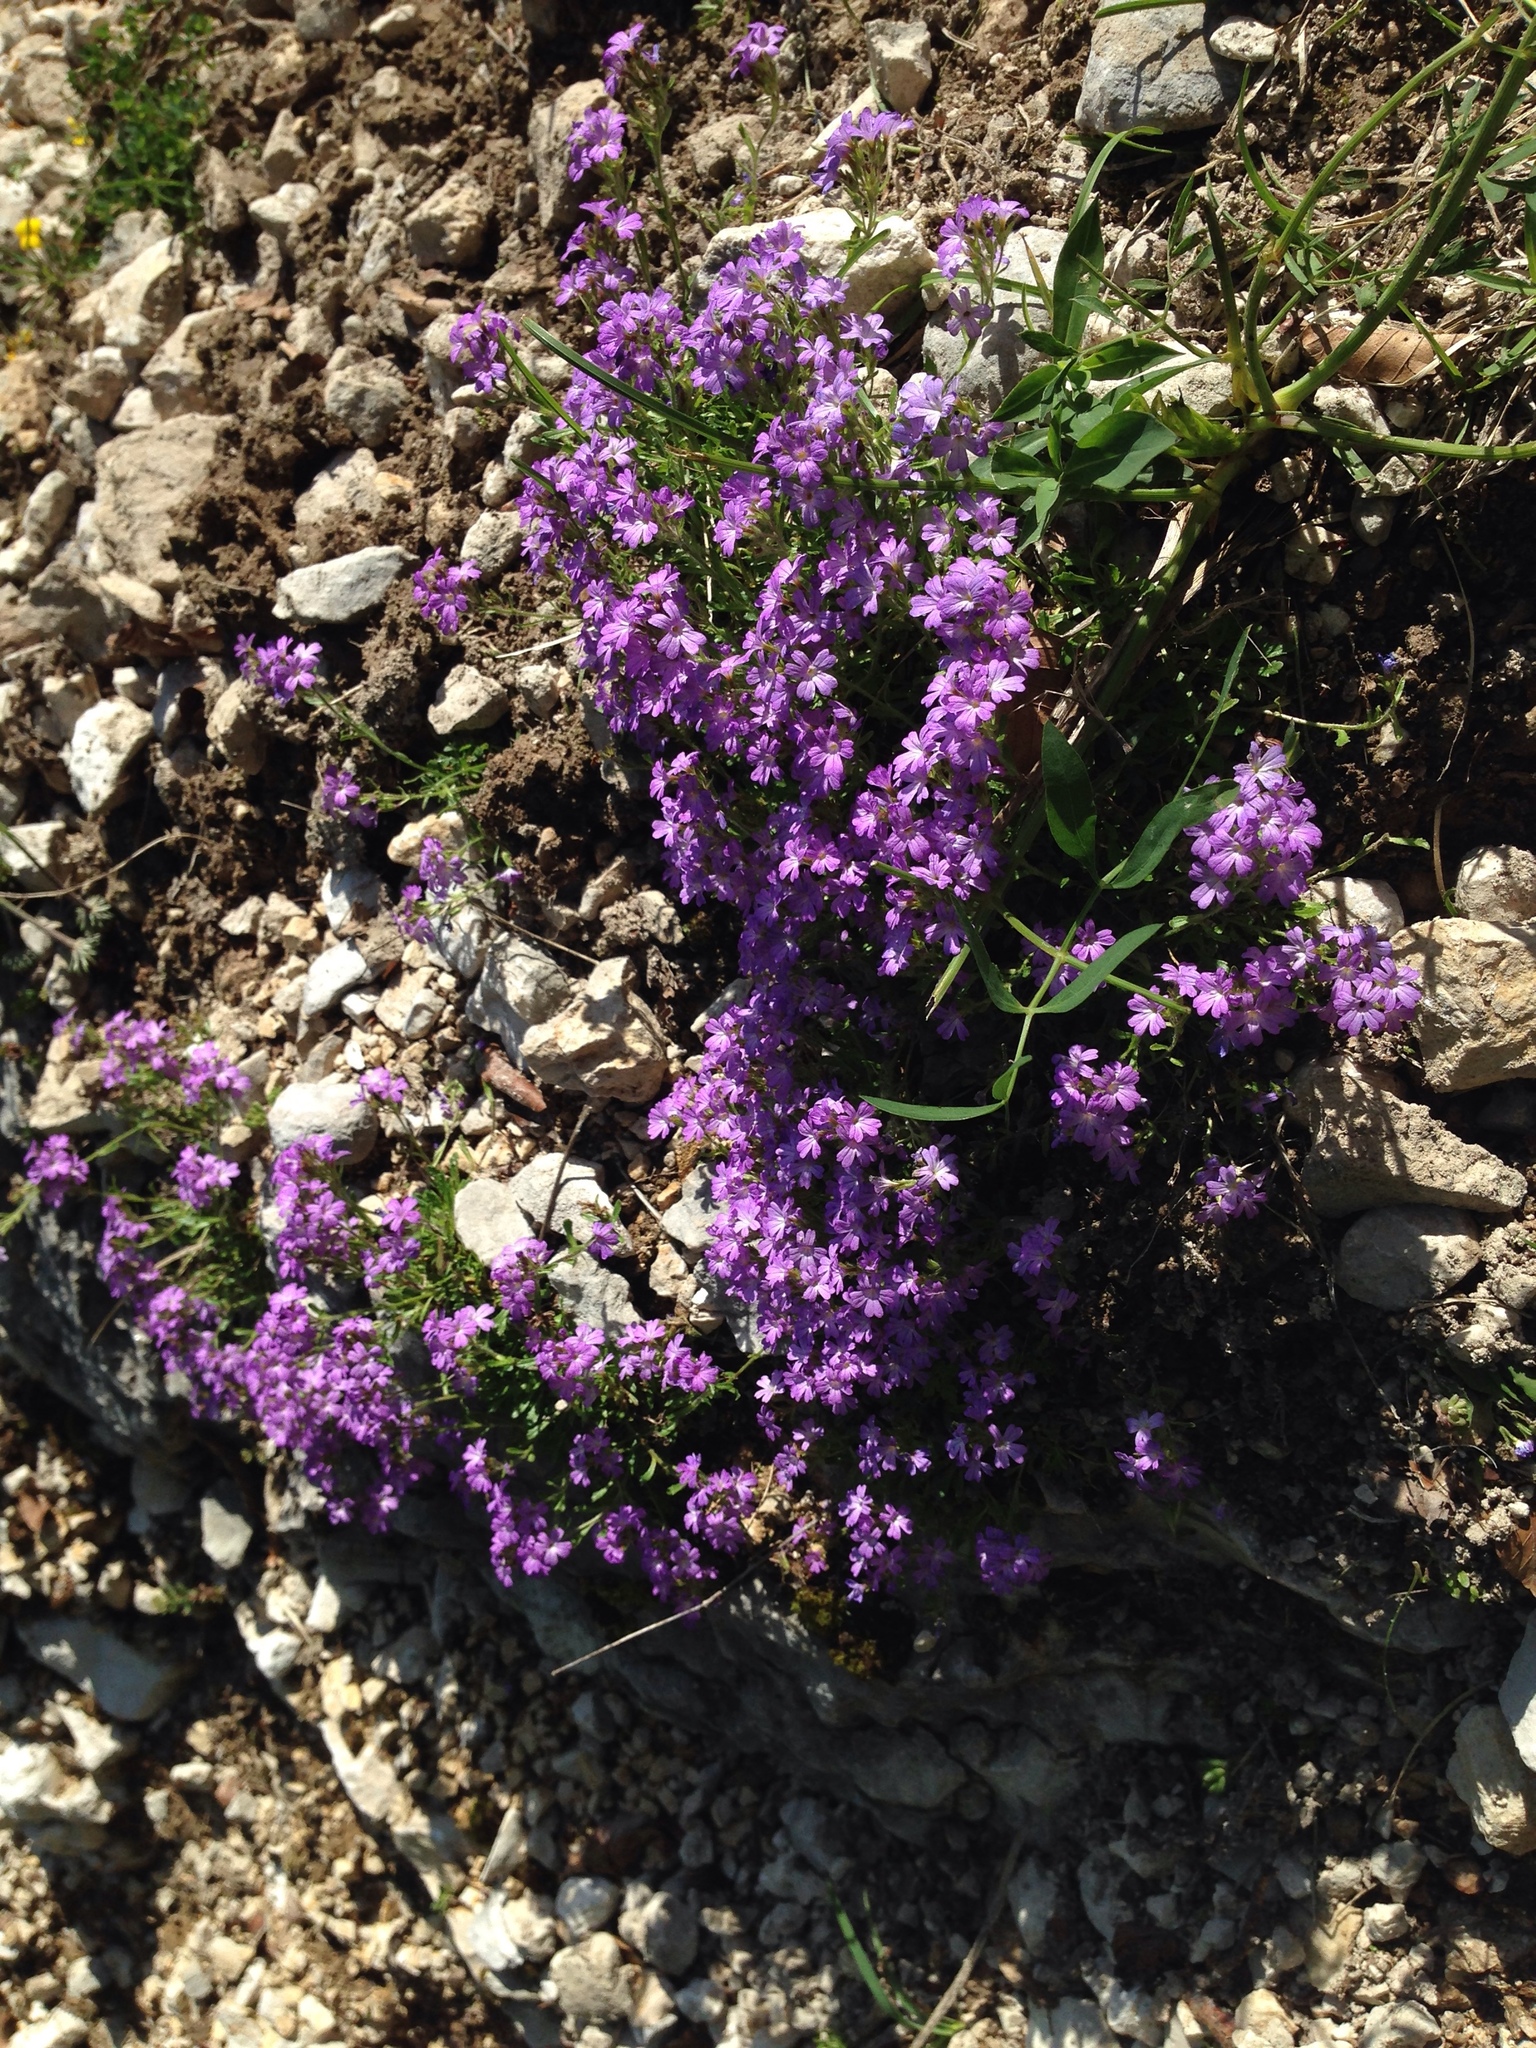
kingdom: Plantae
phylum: Tracheophyta
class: Magnoliopsida
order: Lamiales
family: Plantaginaceae
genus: Erinus
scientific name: Erinus alpinus
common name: Fairy foxglove
